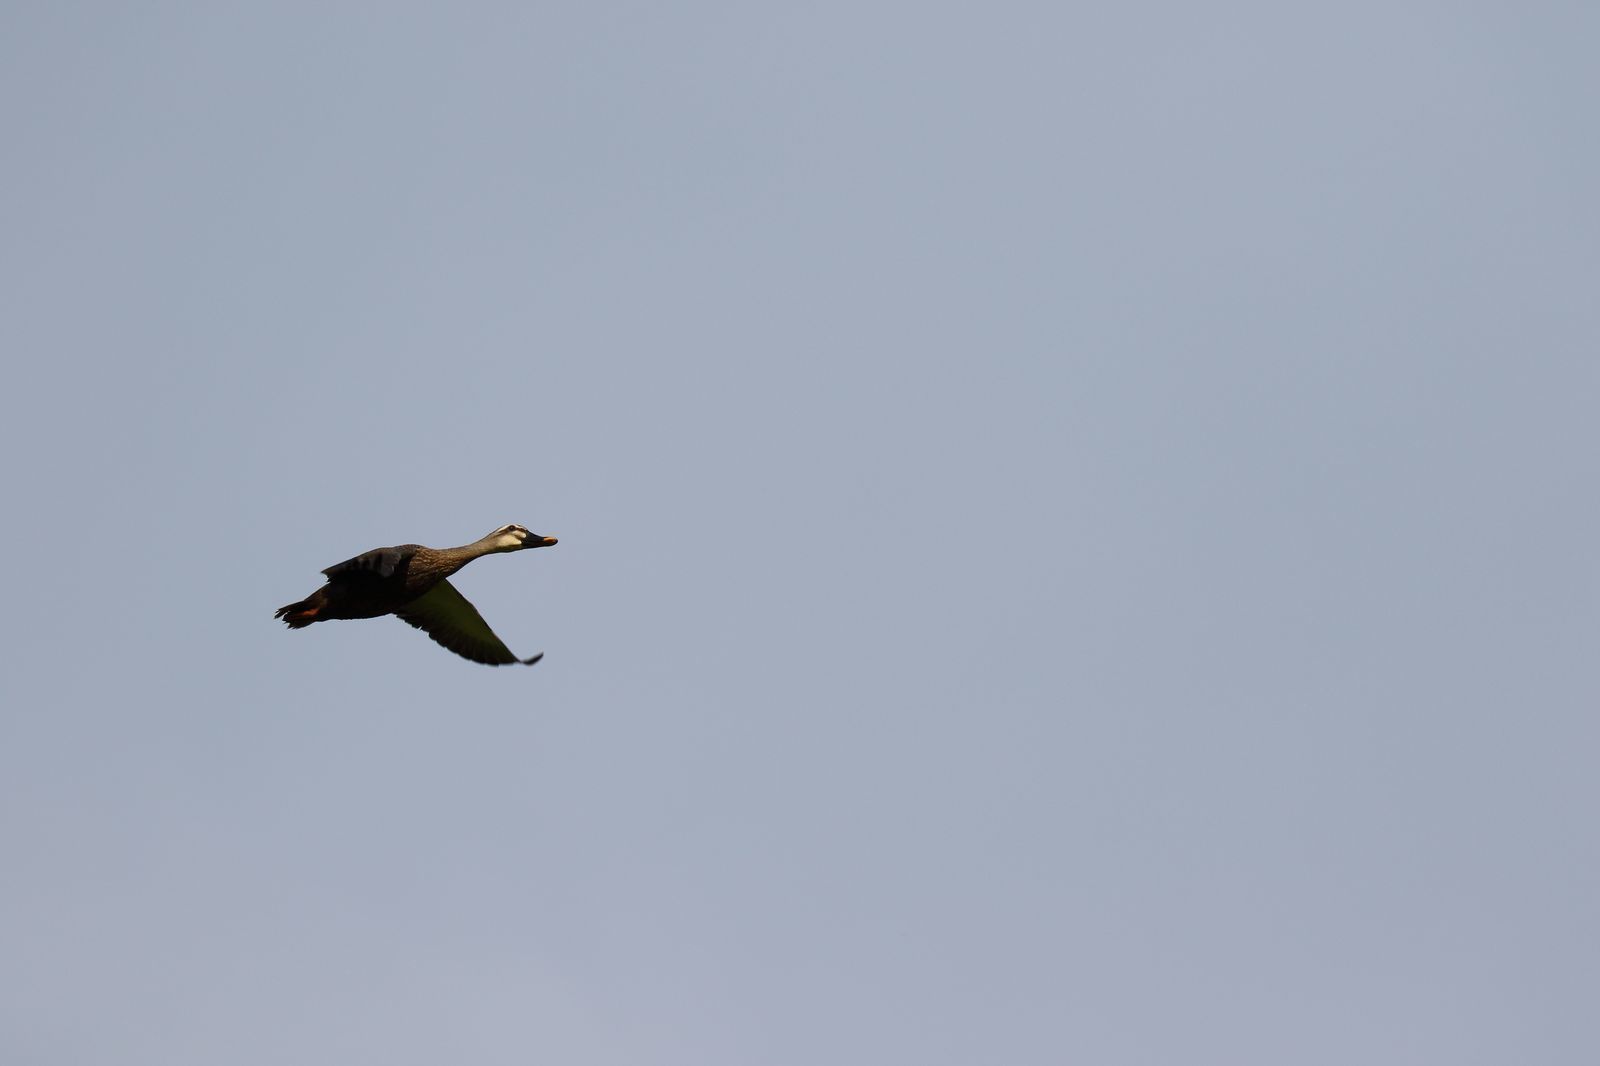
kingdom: Animalia
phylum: Chordata
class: Aves
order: Anseriformes
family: Anatidae
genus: Anas
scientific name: Anas zonorhyncha
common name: Eastern spot-billed duck
